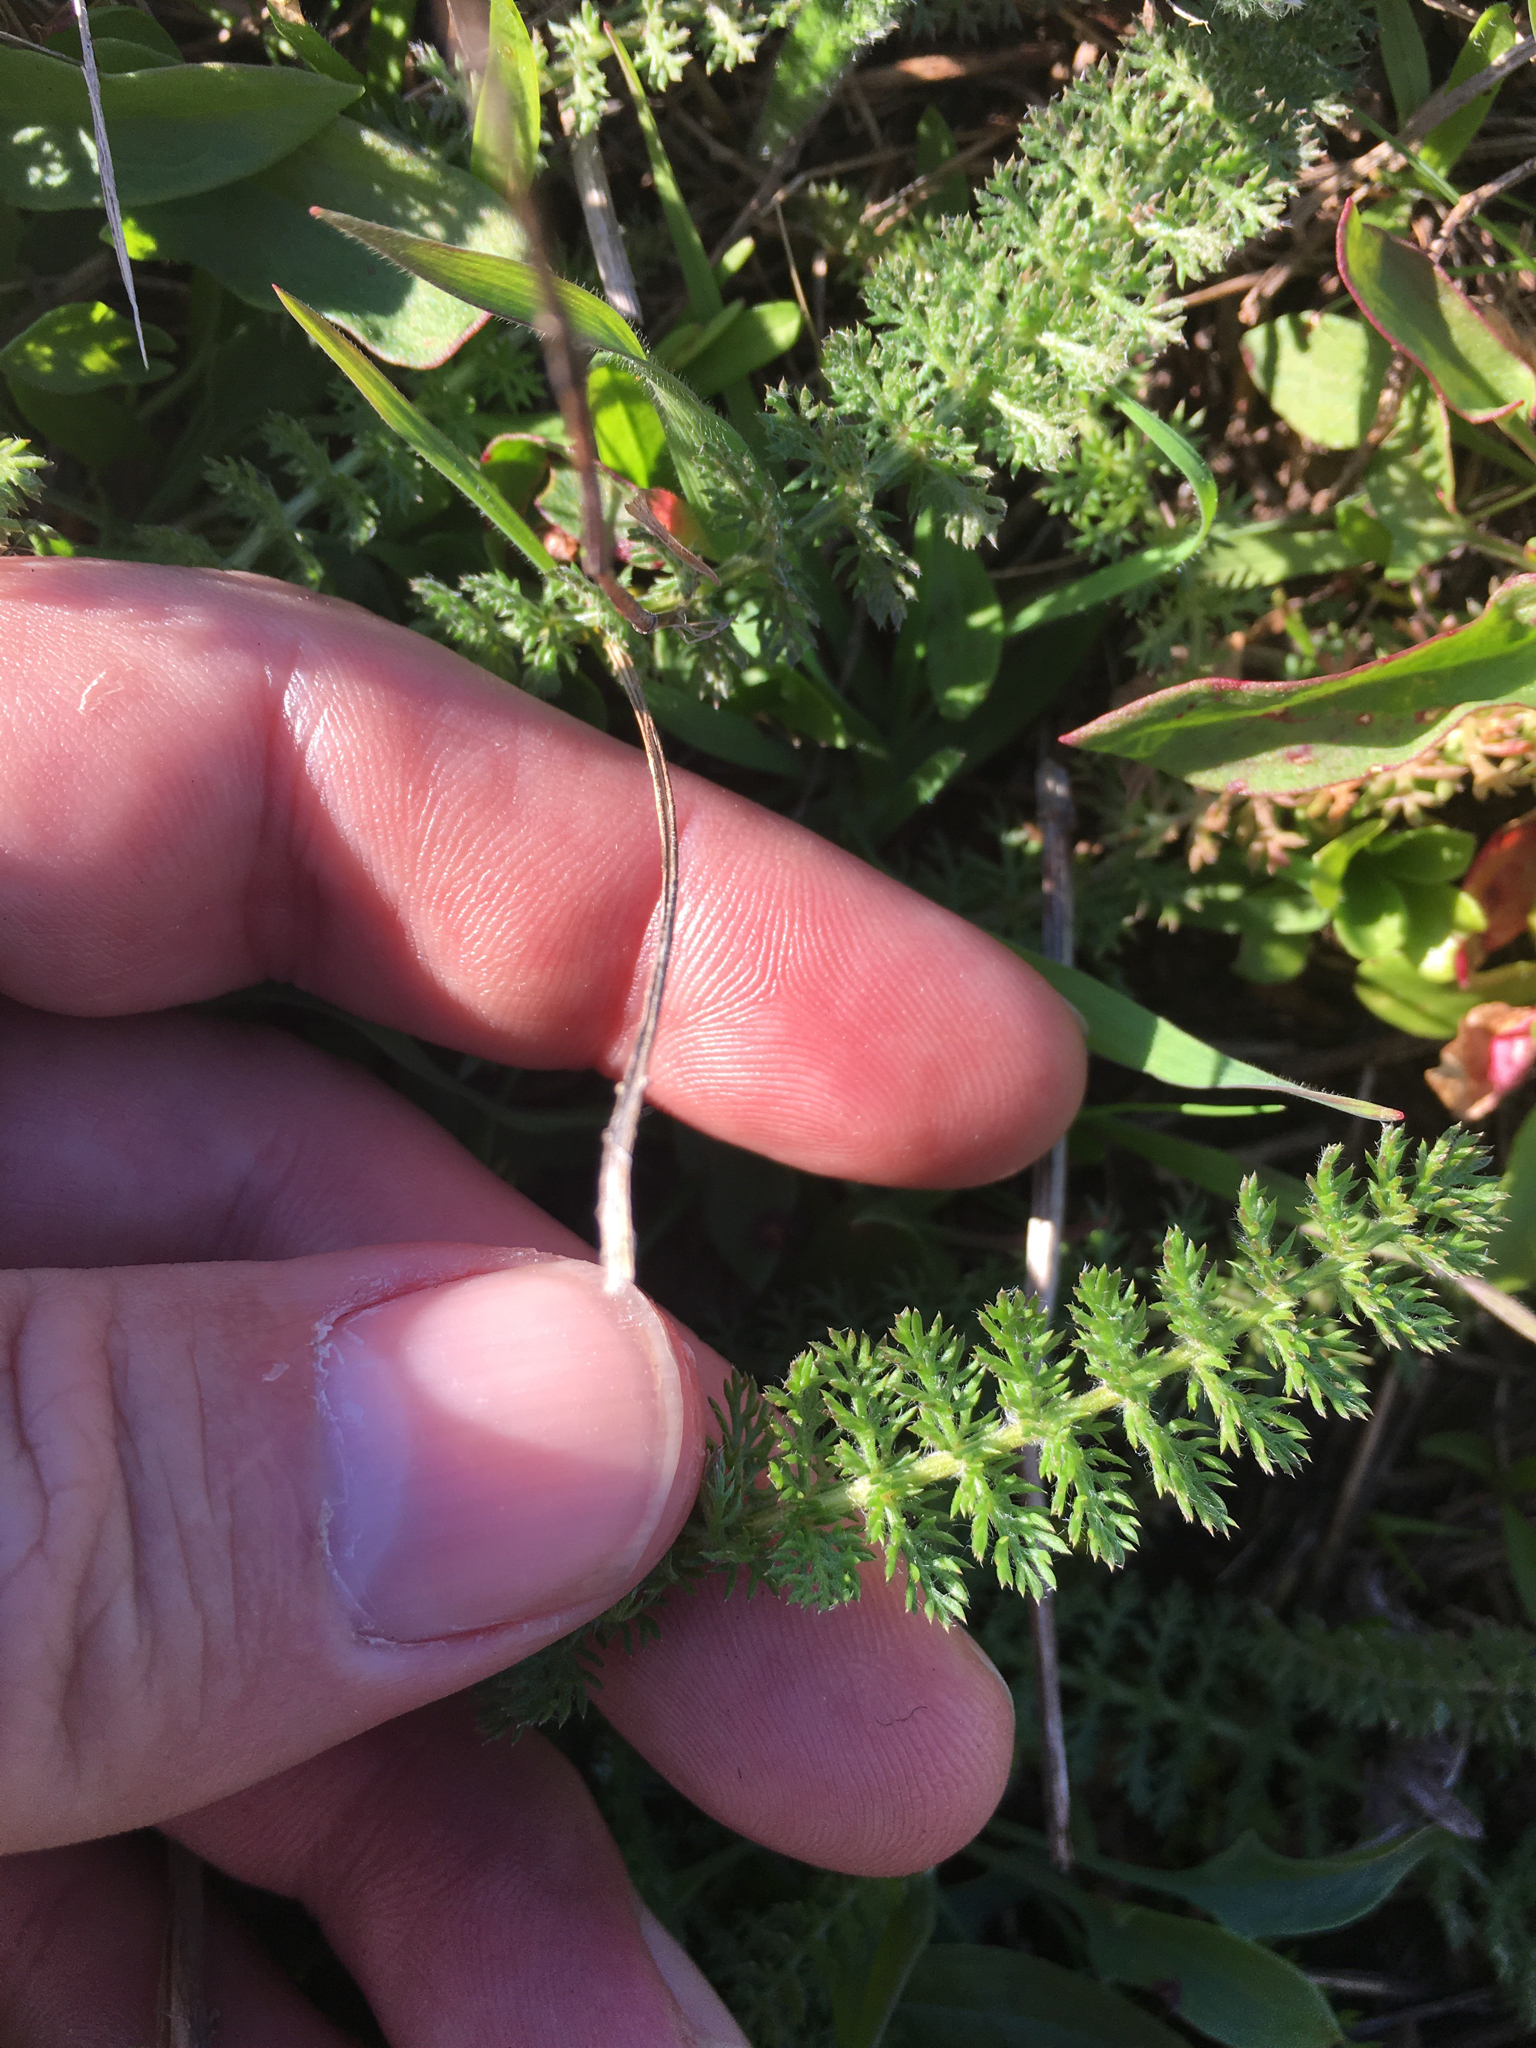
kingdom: Plantae
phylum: Tracheophyta
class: Magnoliopsida
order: Asterales
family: Asteraceae
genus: Achillea
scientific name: Achillea millefolium
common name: Yarrow
